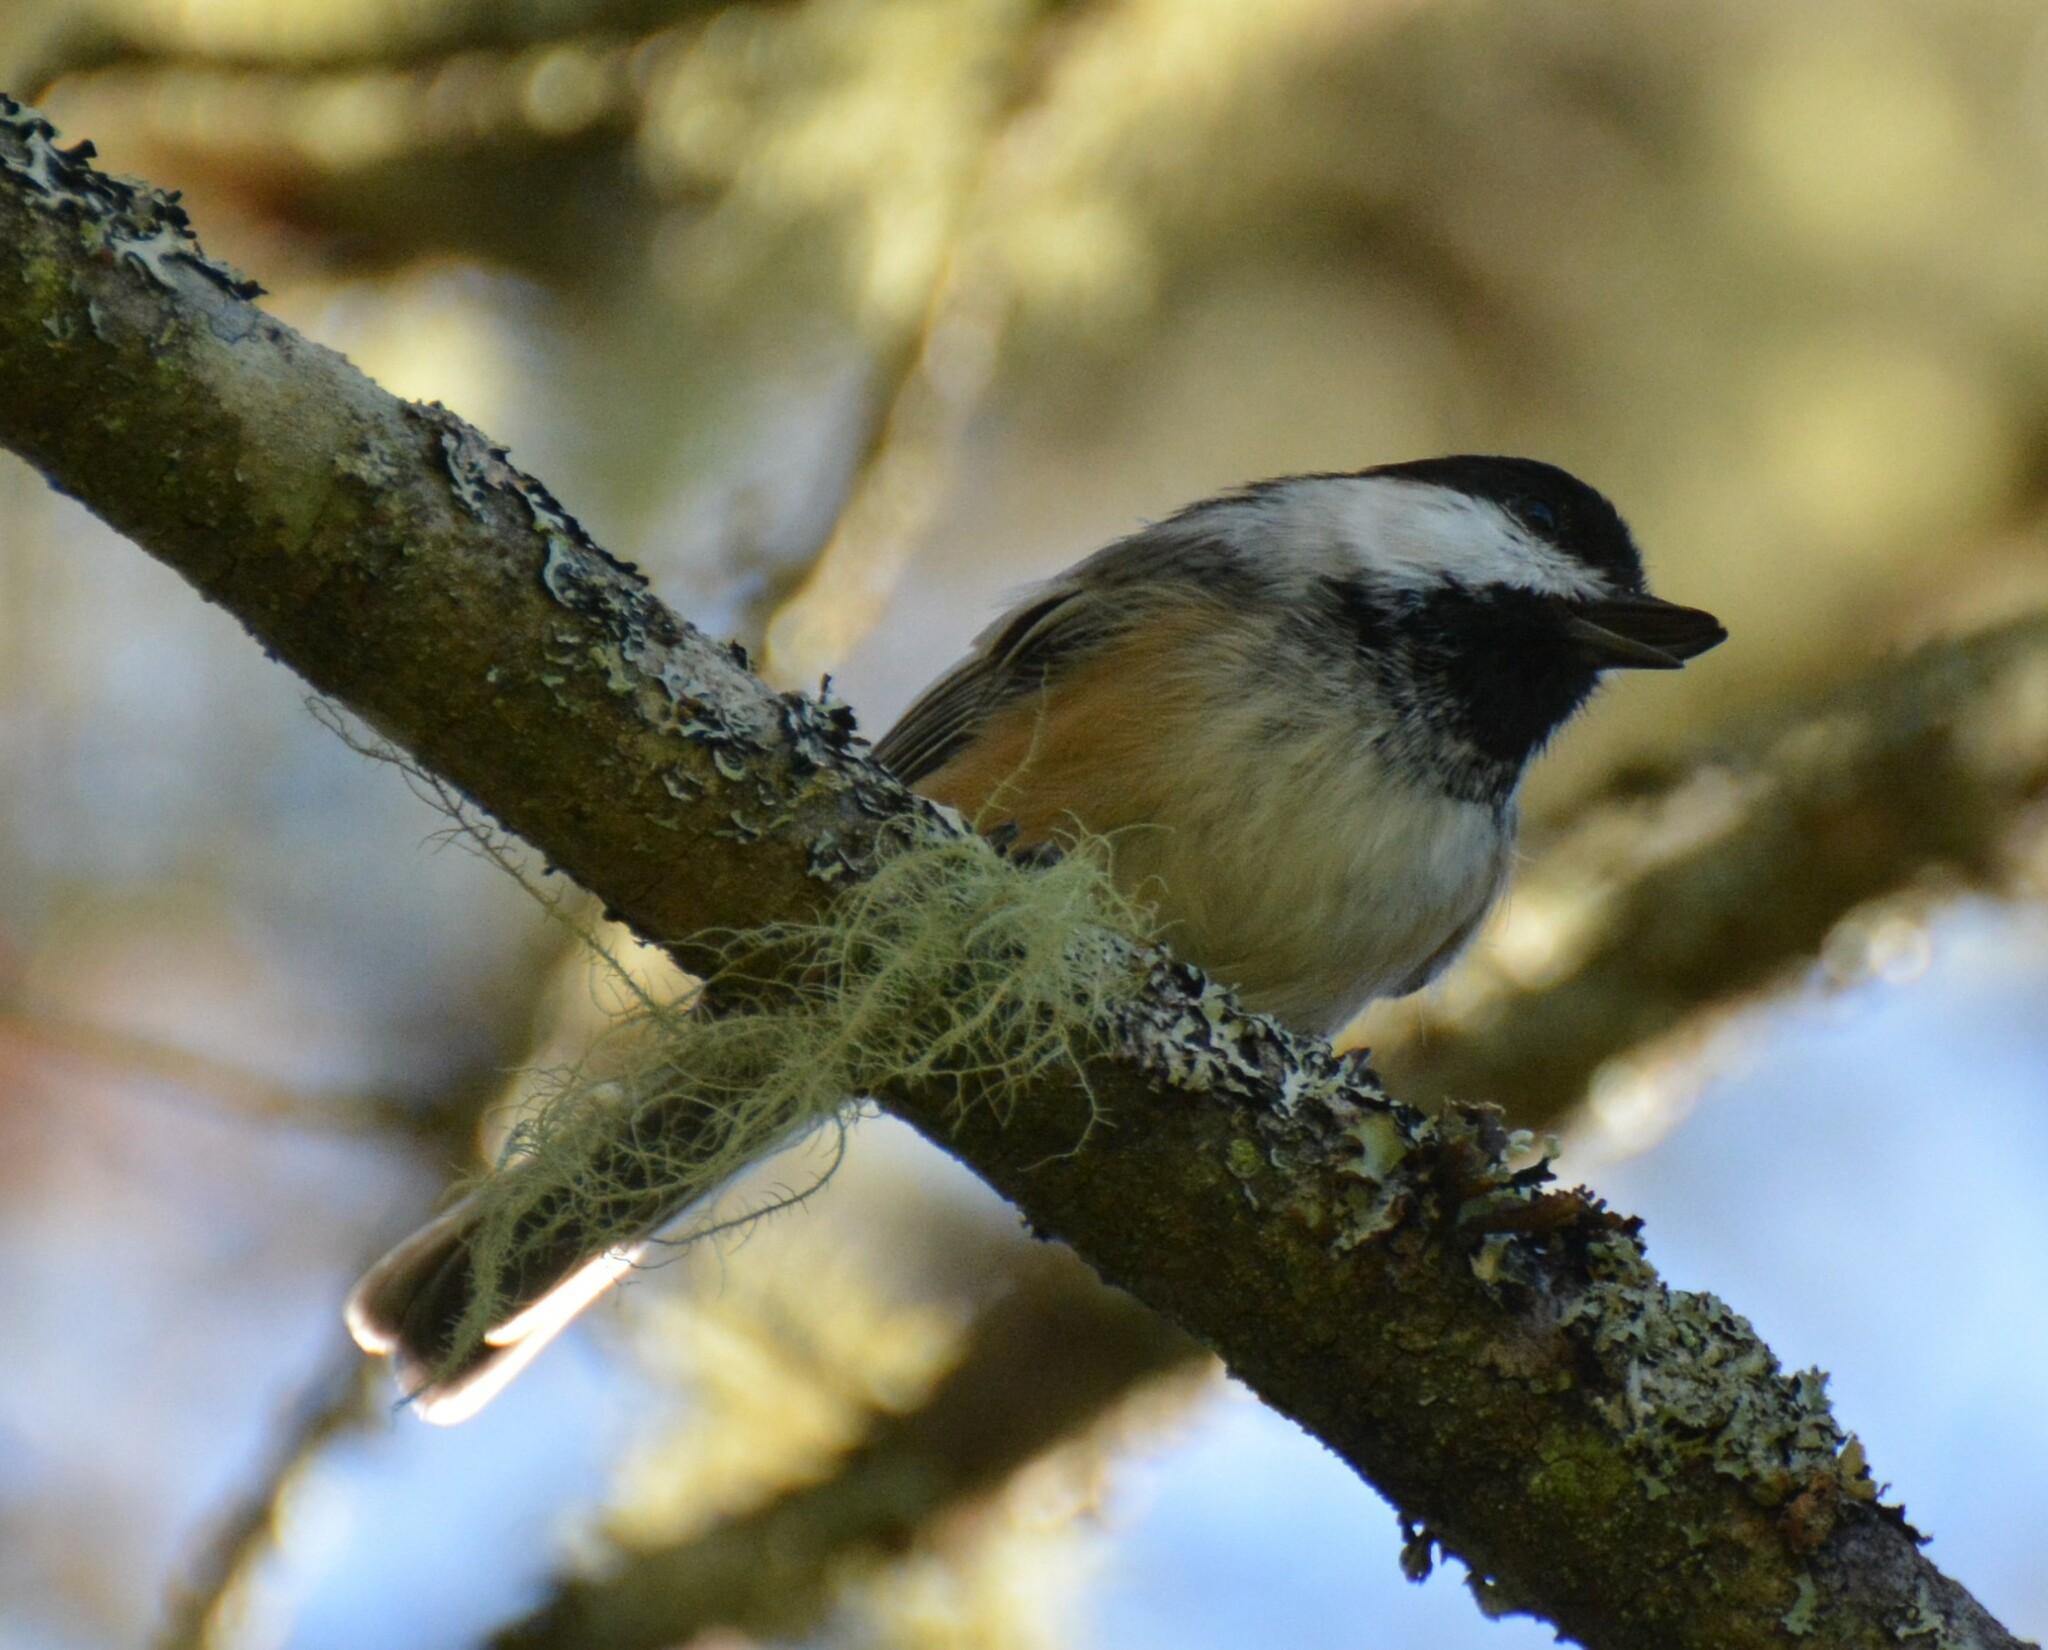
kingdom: Animalia
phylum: Chordata
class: Aves
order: Passeriformes
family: Paridae
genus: Poecile
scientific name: Poecile atricapillus
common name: Black-capped chickadee
